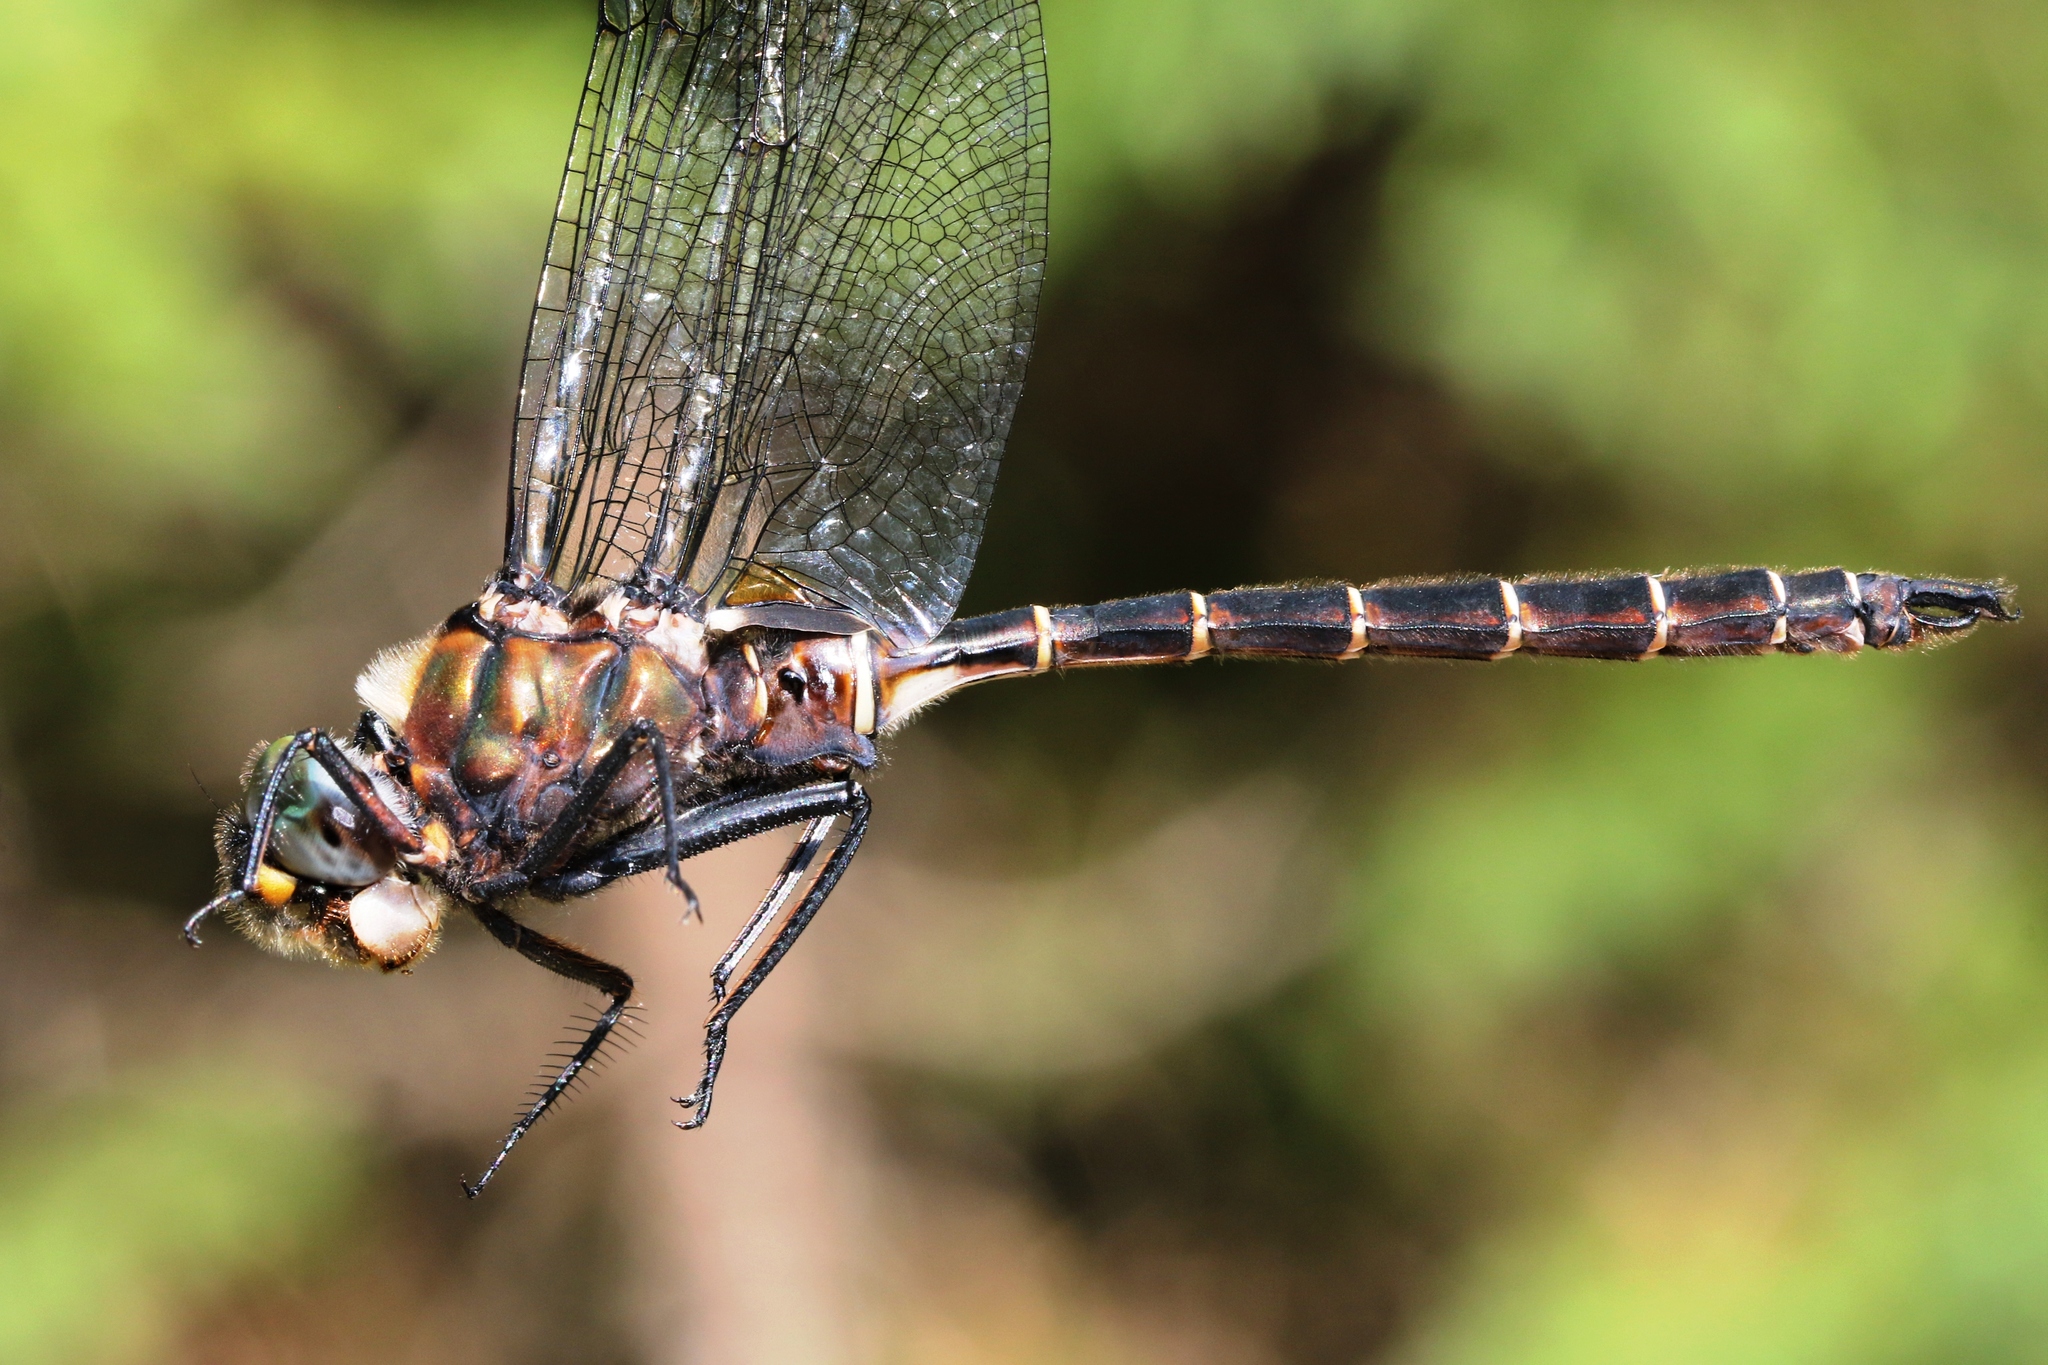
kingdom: Animalia
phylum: Arthropoda
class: Insecta
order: Odonata
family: Corduliidae
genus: Somatochlora
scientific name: Somatochlora cingulata
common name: Lake emerald
